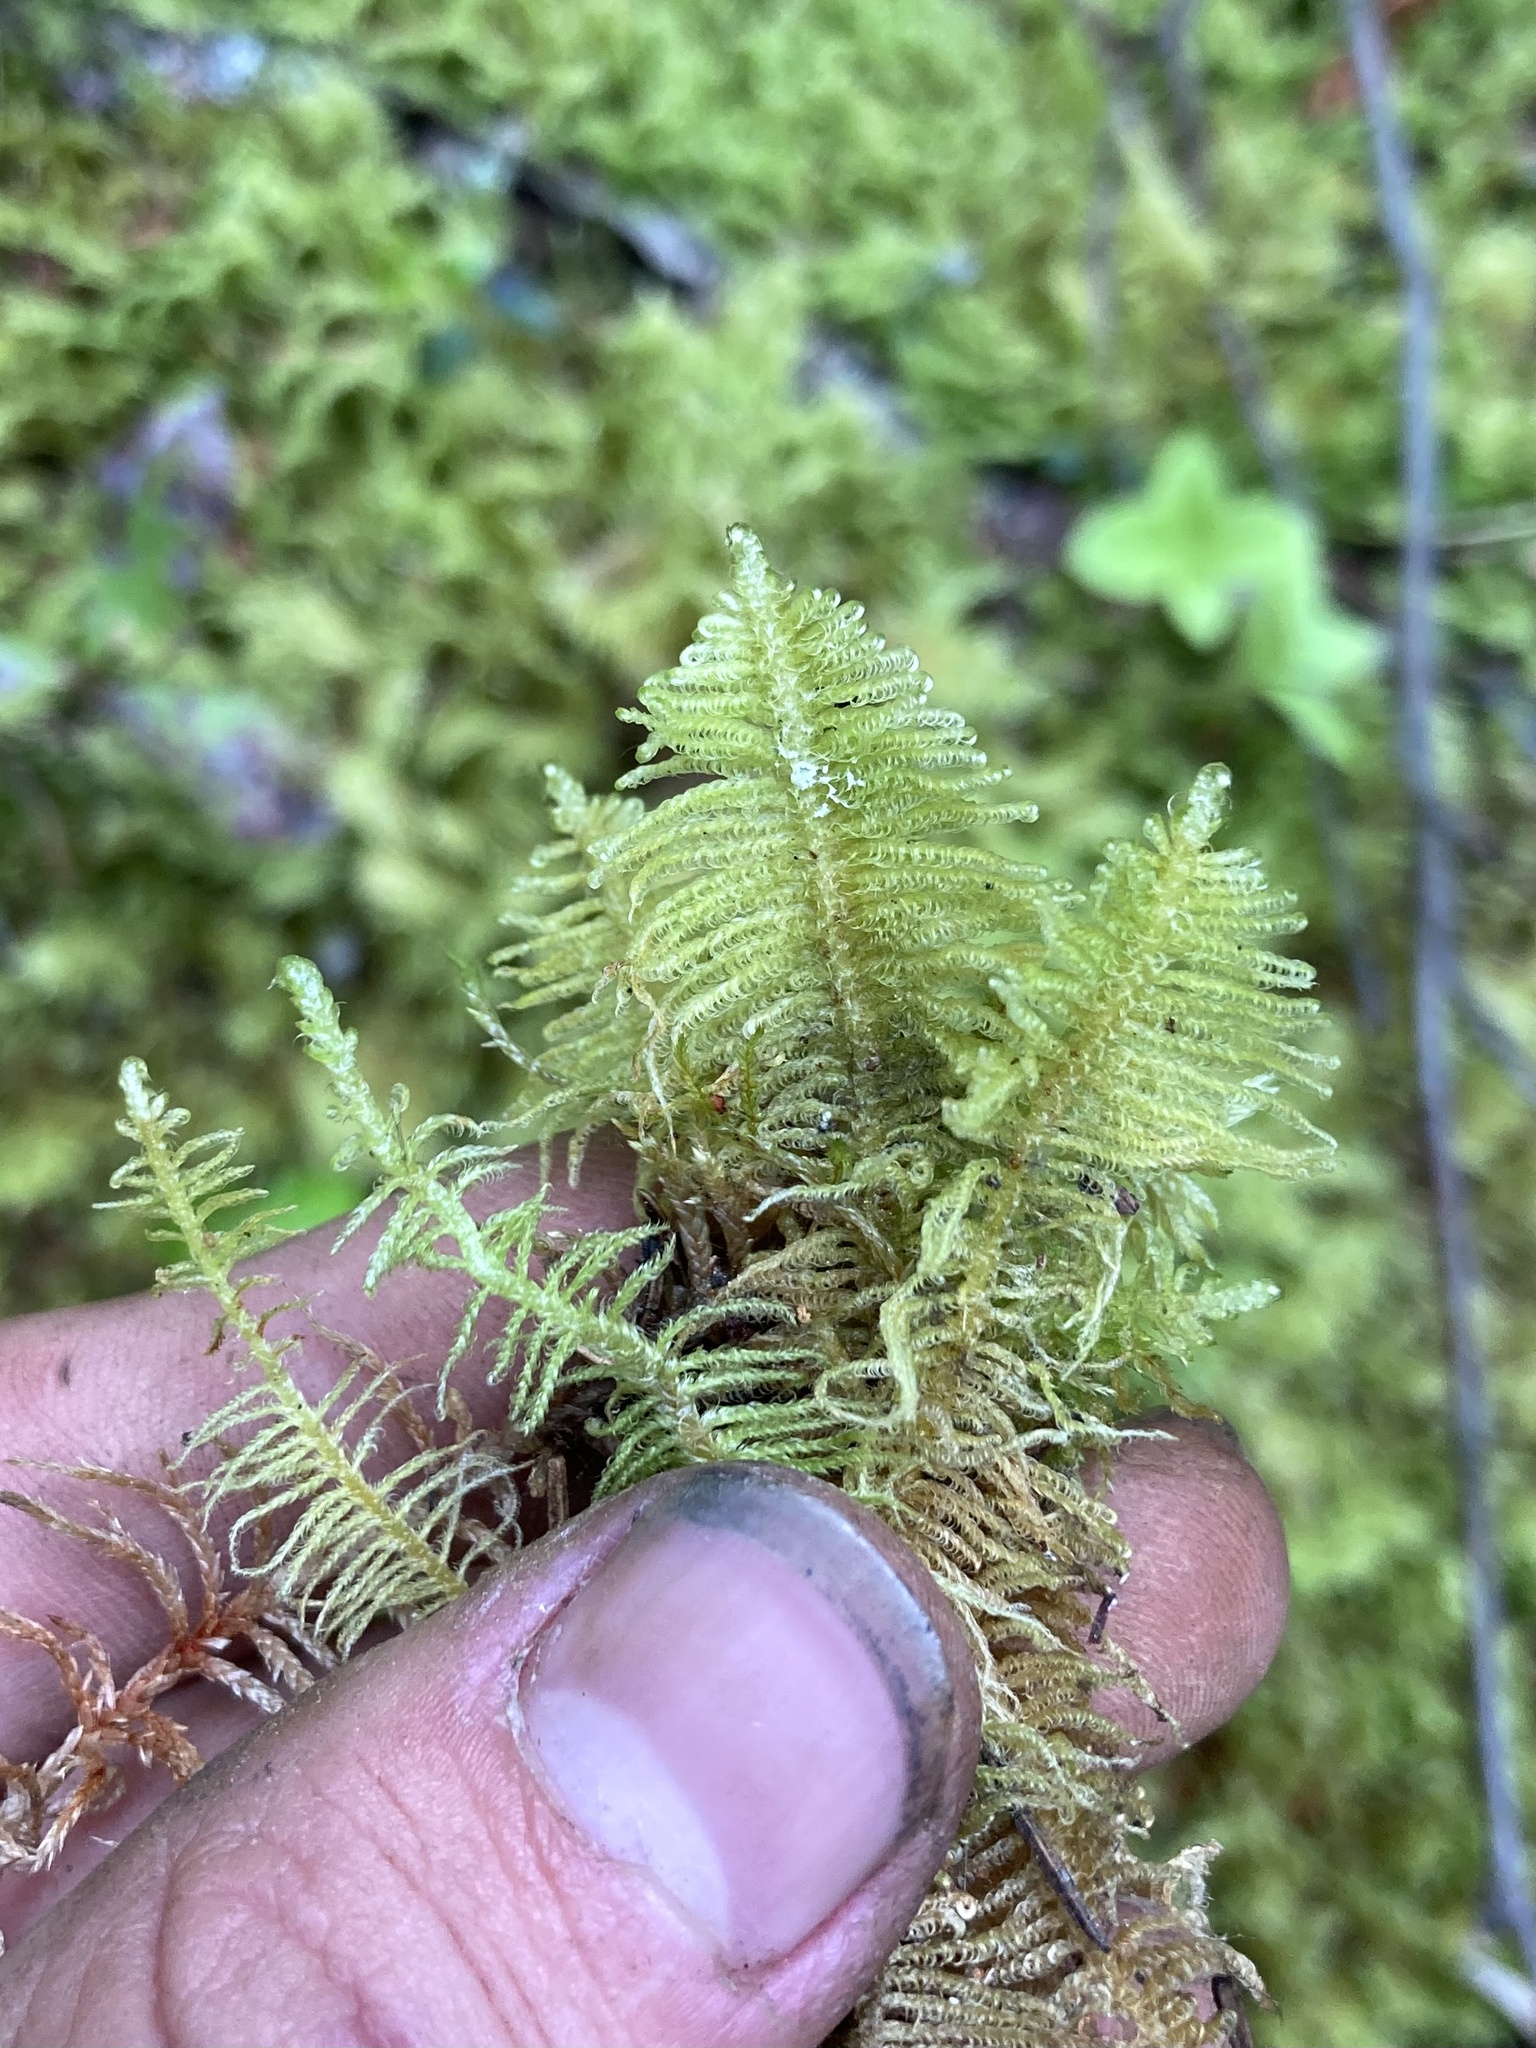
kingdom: Plantae
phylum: Bryophyta
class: Bryopsida
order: Hypnales
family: Pylaisiaceae
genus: Ptilium
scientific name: Ptilium crista-castrensis
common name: Knight's plume moss
